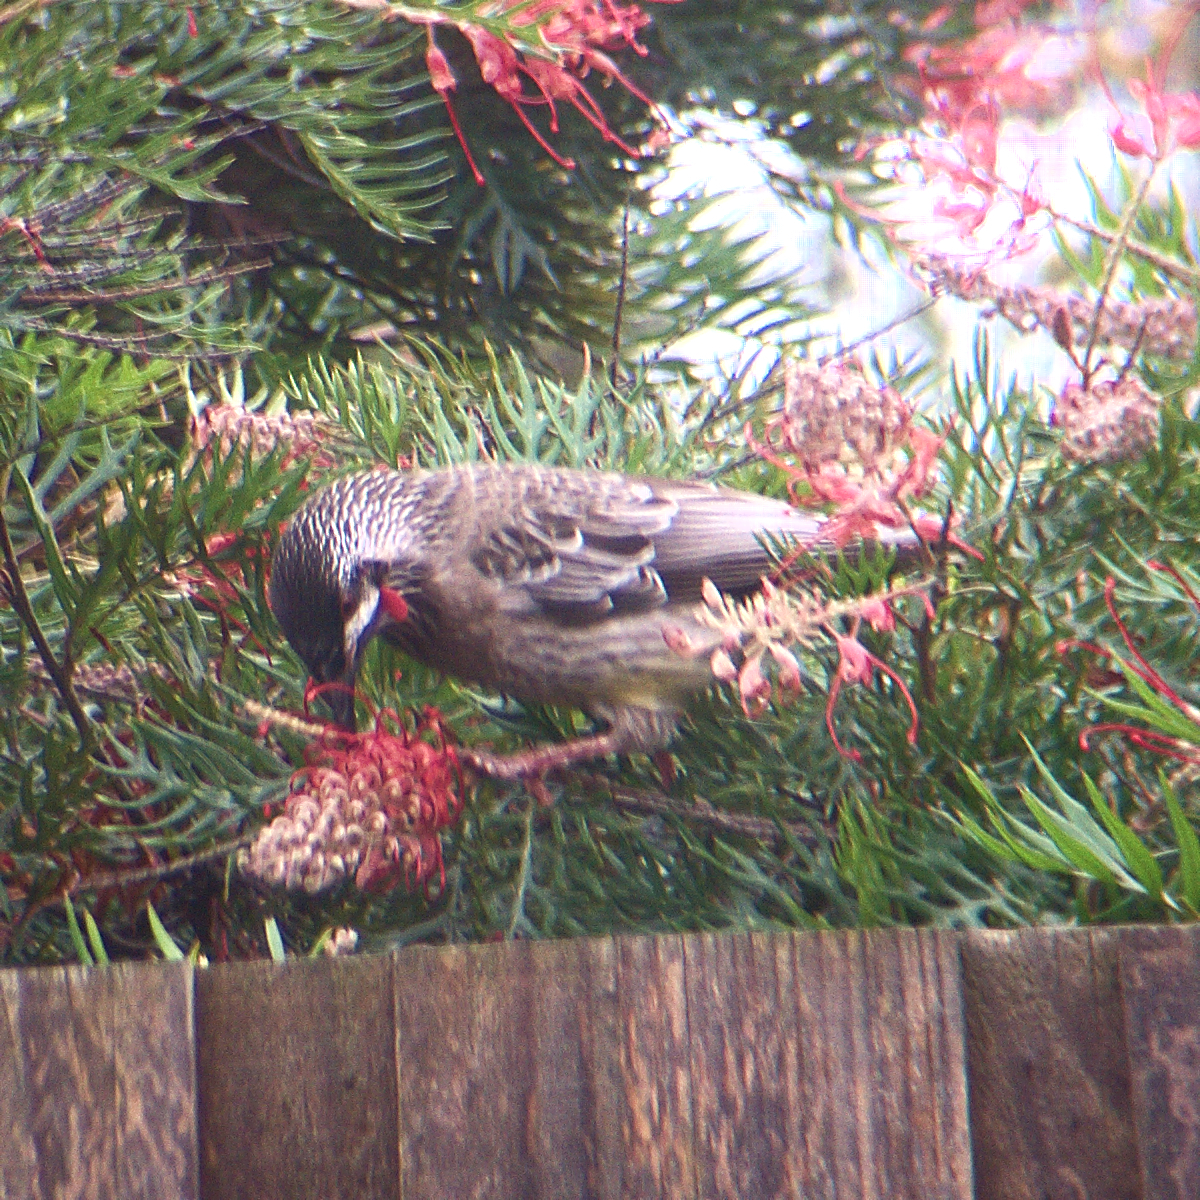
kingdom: Animalia
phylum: Chordata
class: Aves
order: Passeriformes
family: Meliphagidae
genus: Anthochaera
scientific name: Anthochaera carunculata
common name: Red wattlebird
